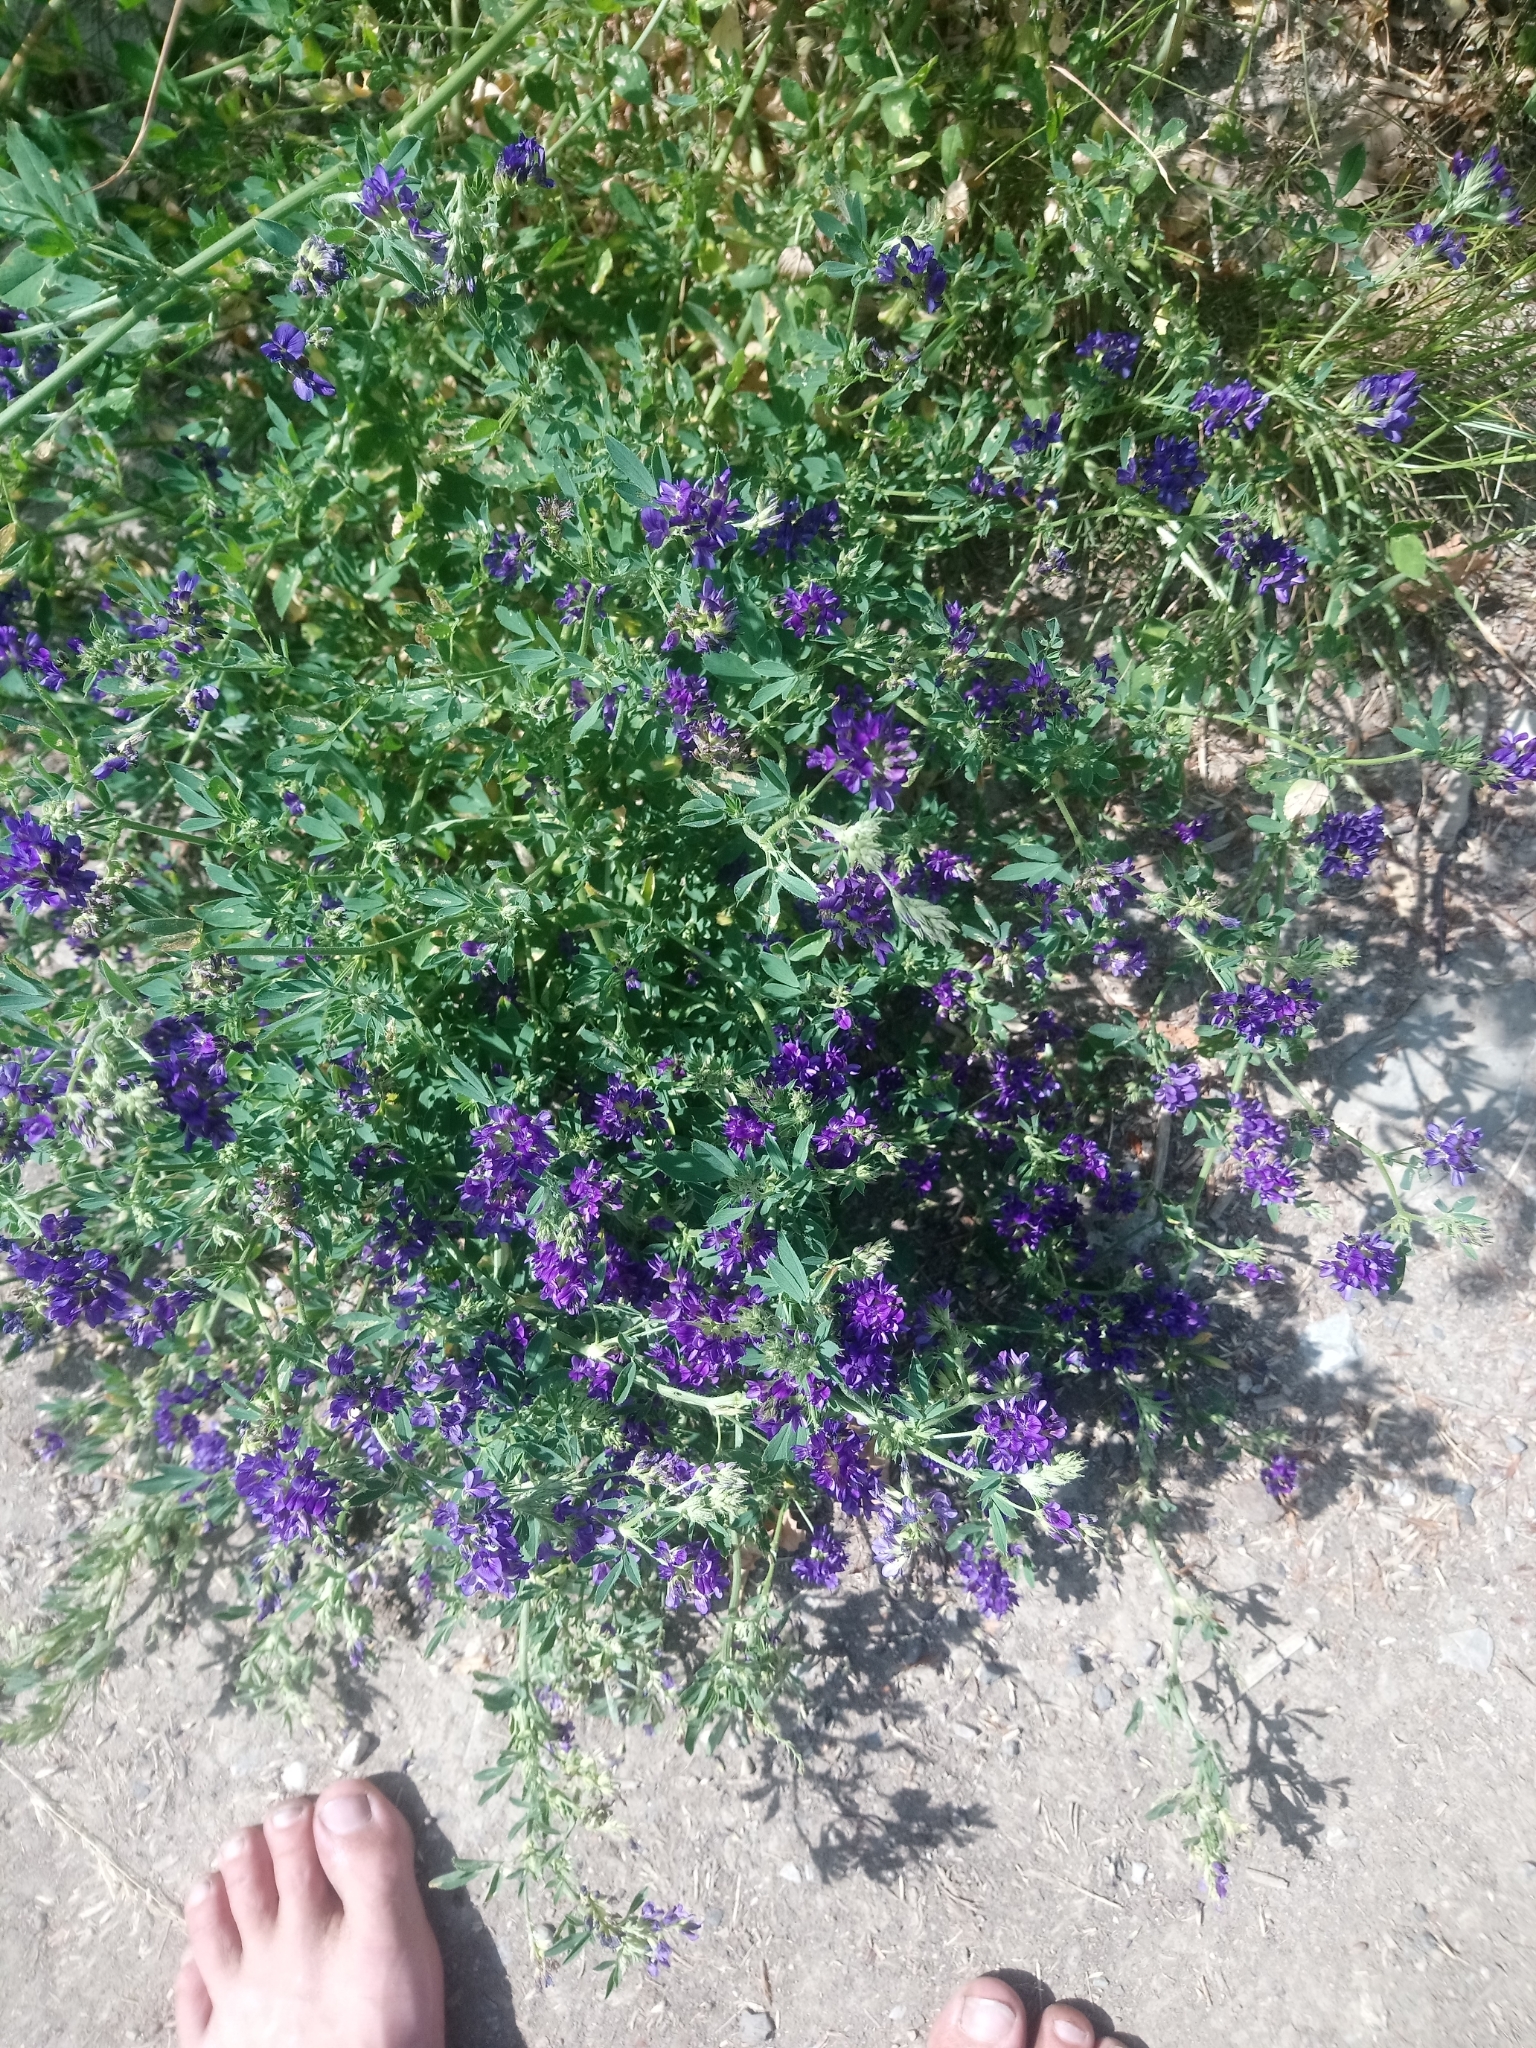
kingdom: Plantae
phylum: Tracheophyta
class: Magnoliopsida
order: Fabales
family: Fabaceae
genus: Medicago
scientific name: Medicago sativa
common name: Alfalfa
